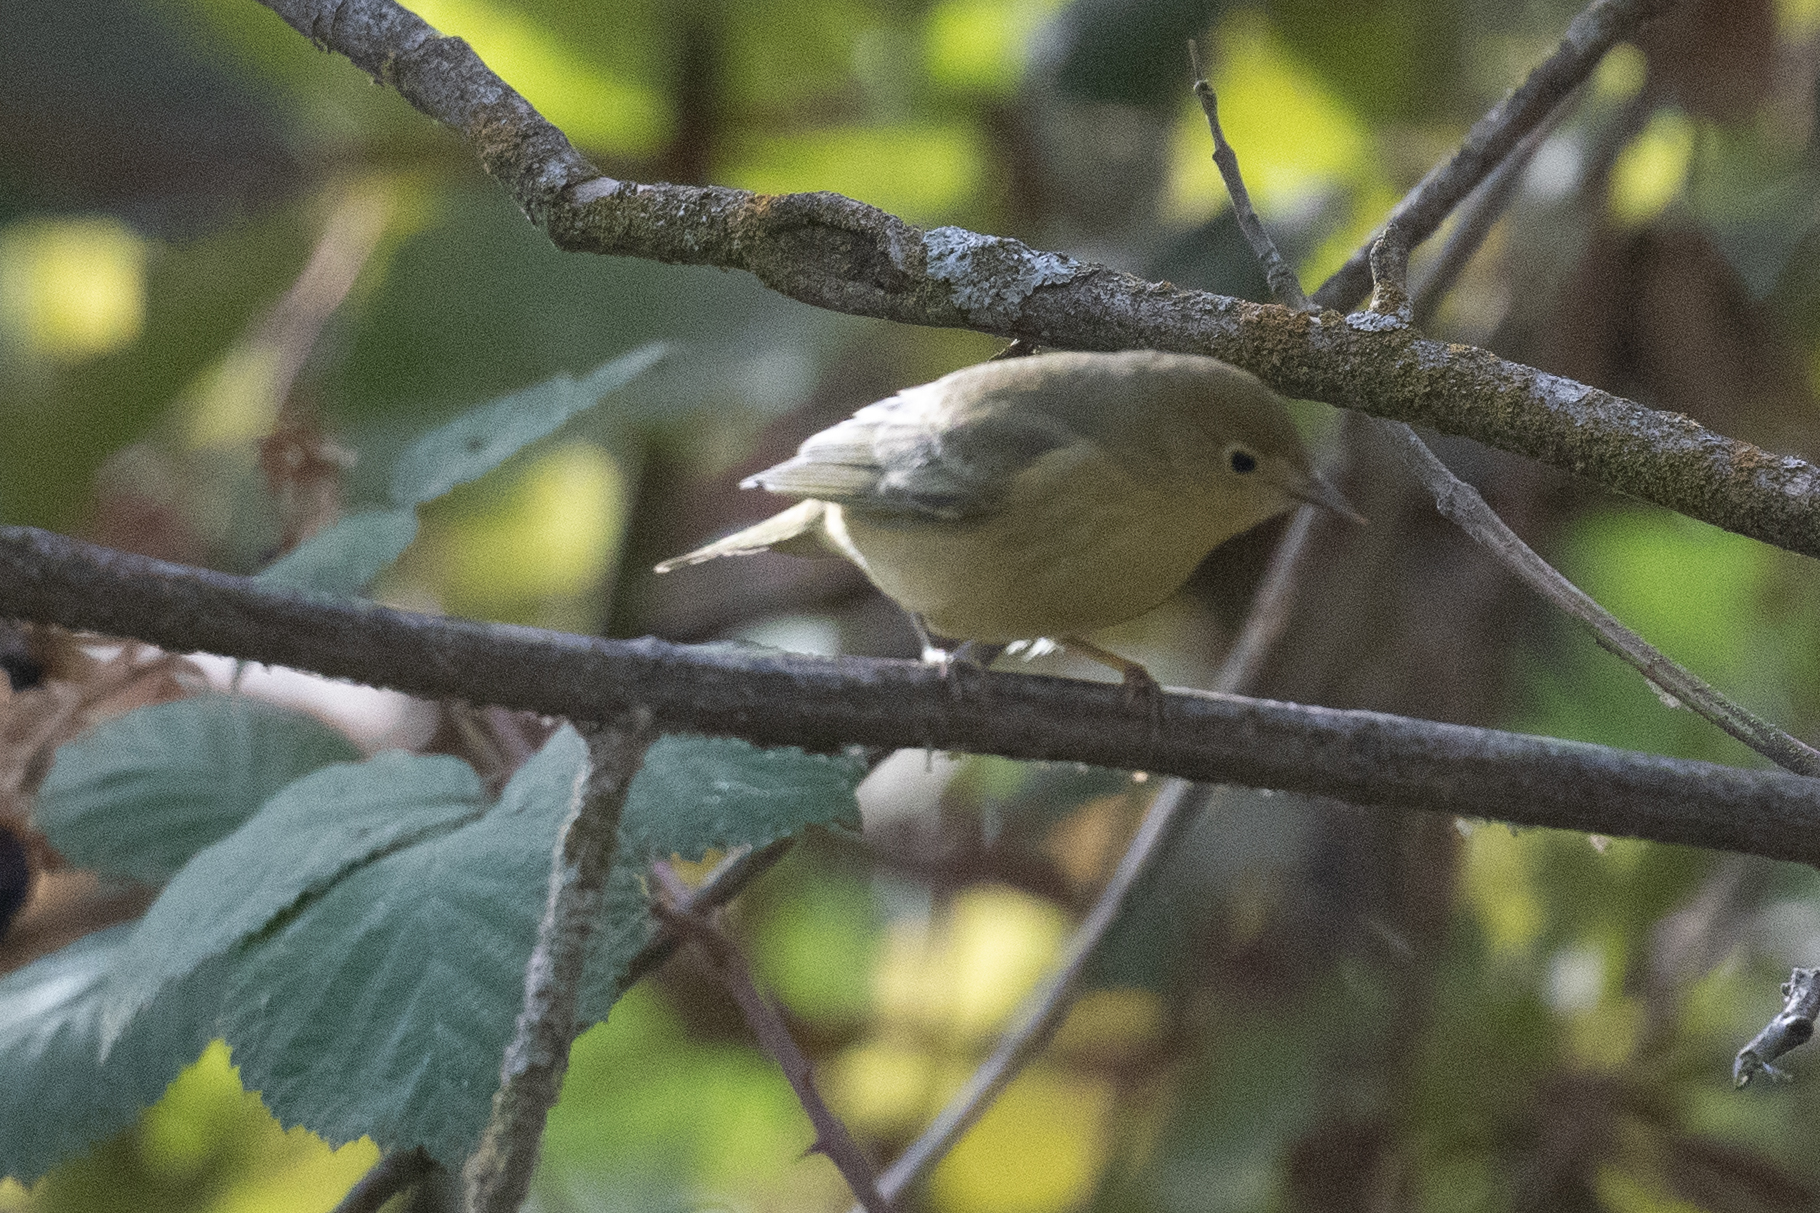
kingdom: Animalia
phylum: Chordata
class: Aves
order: Passeriformes
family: Parulidae
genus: Setophaga
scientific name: Setophaga petechia
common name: Yellow warbler
